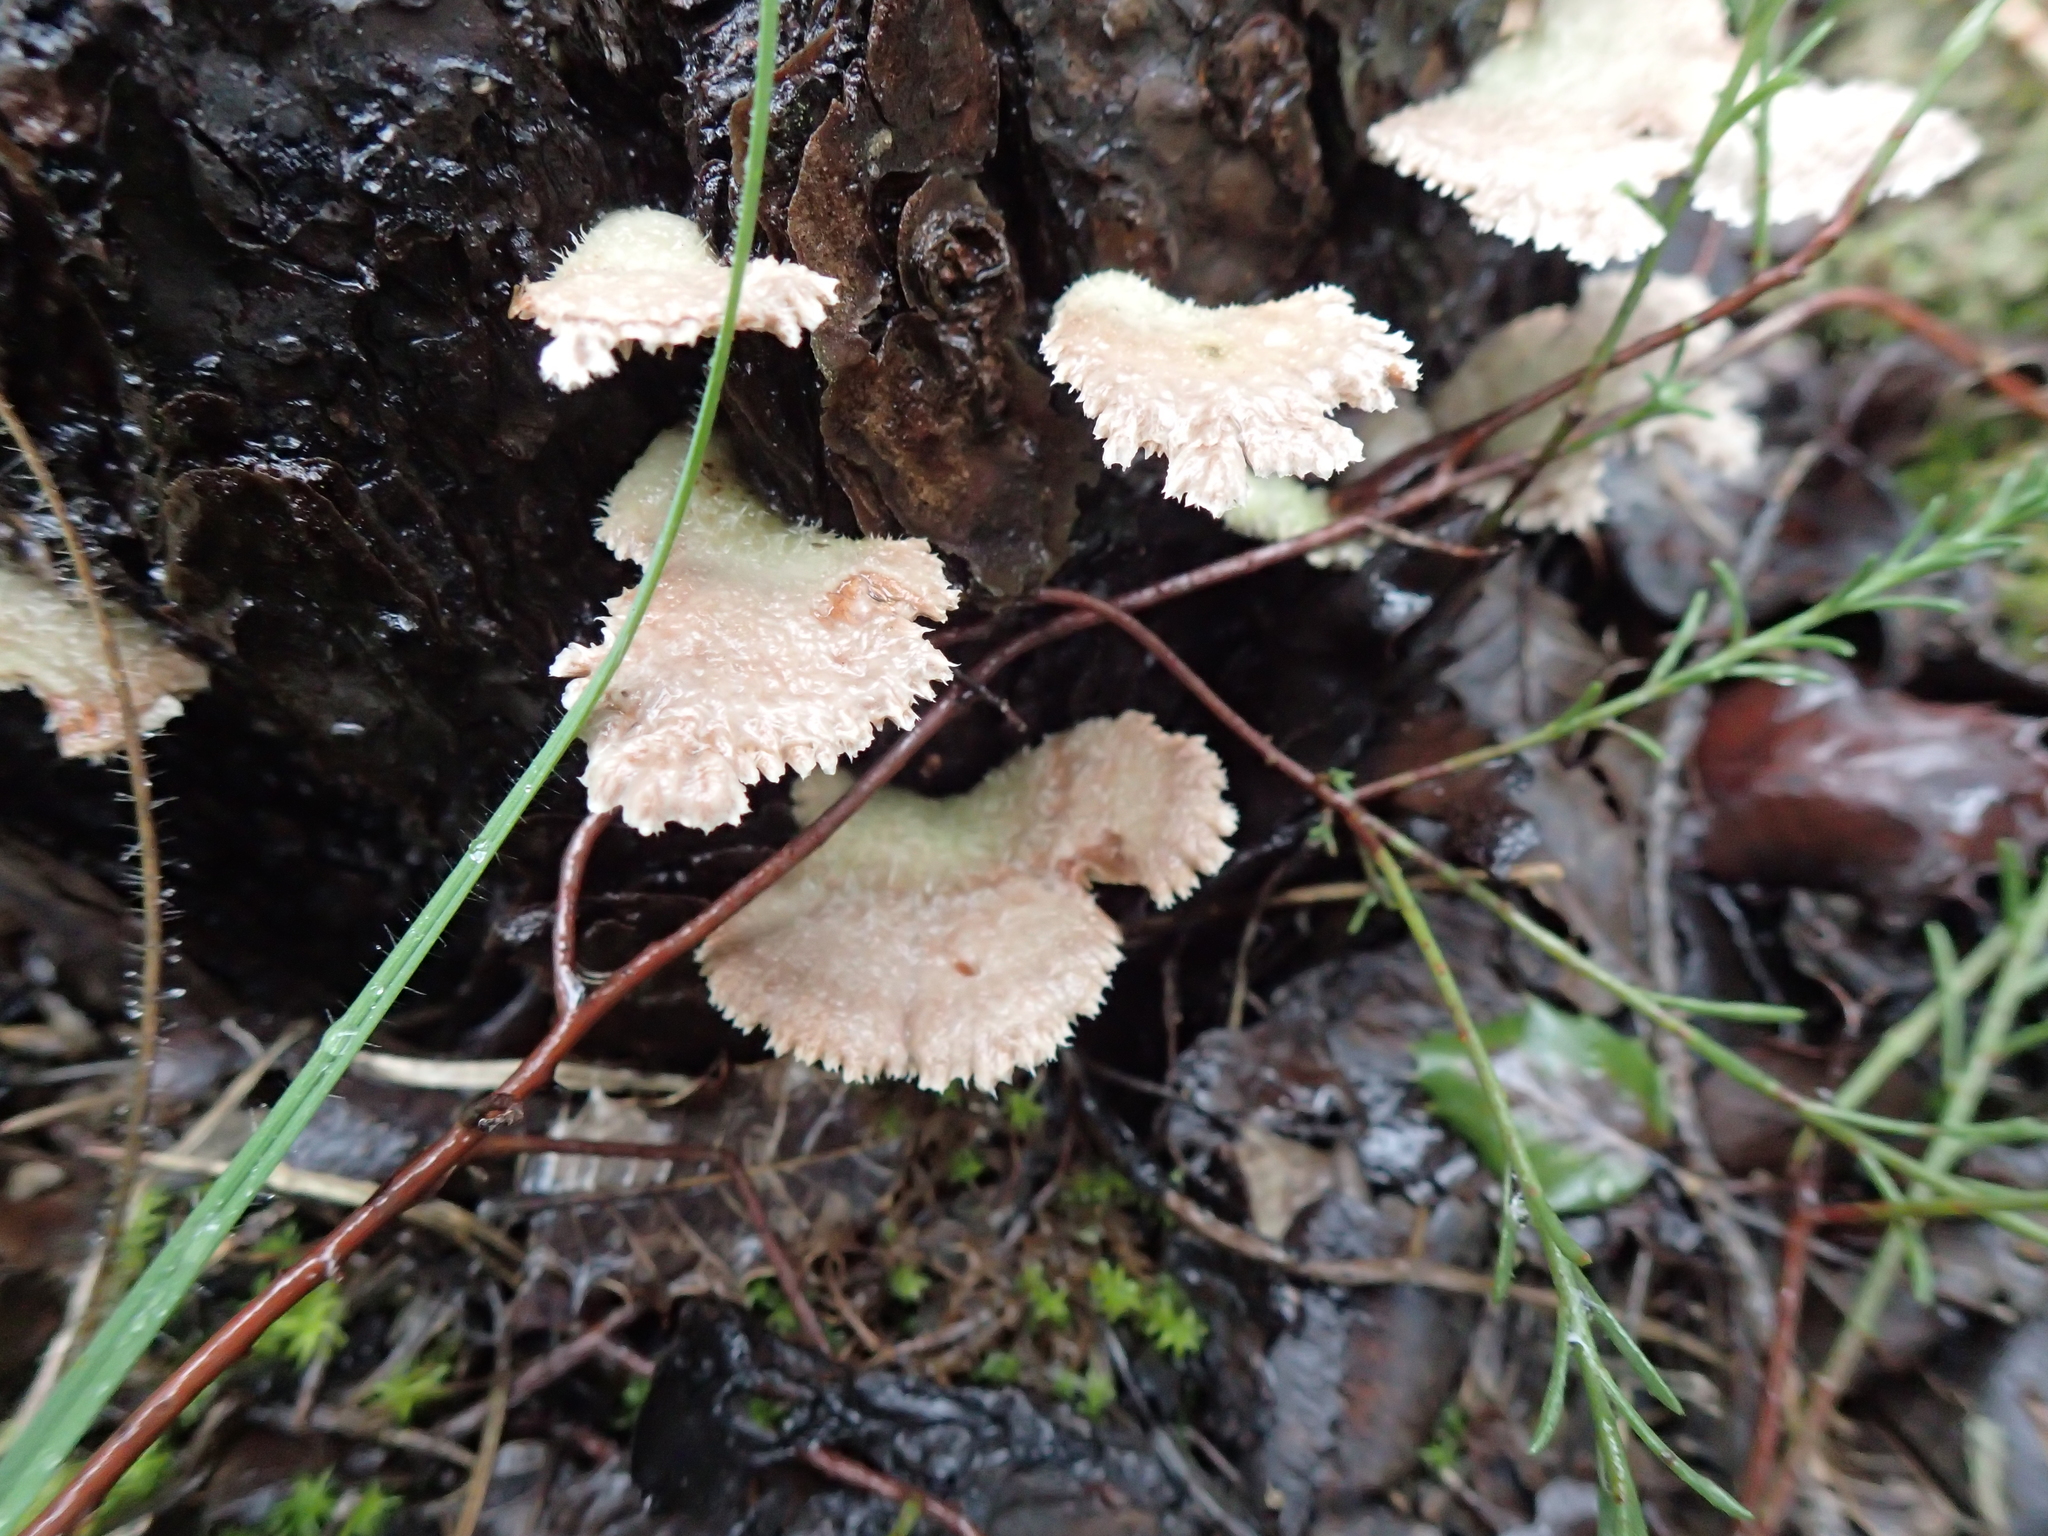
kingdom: Fungi
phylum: Basidiomycota
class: Agaricomycetes
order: Agaricales
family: Schizophyllaceae
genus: Schizophyllum
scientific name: Schizophyllum commune
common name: Common porecrust
